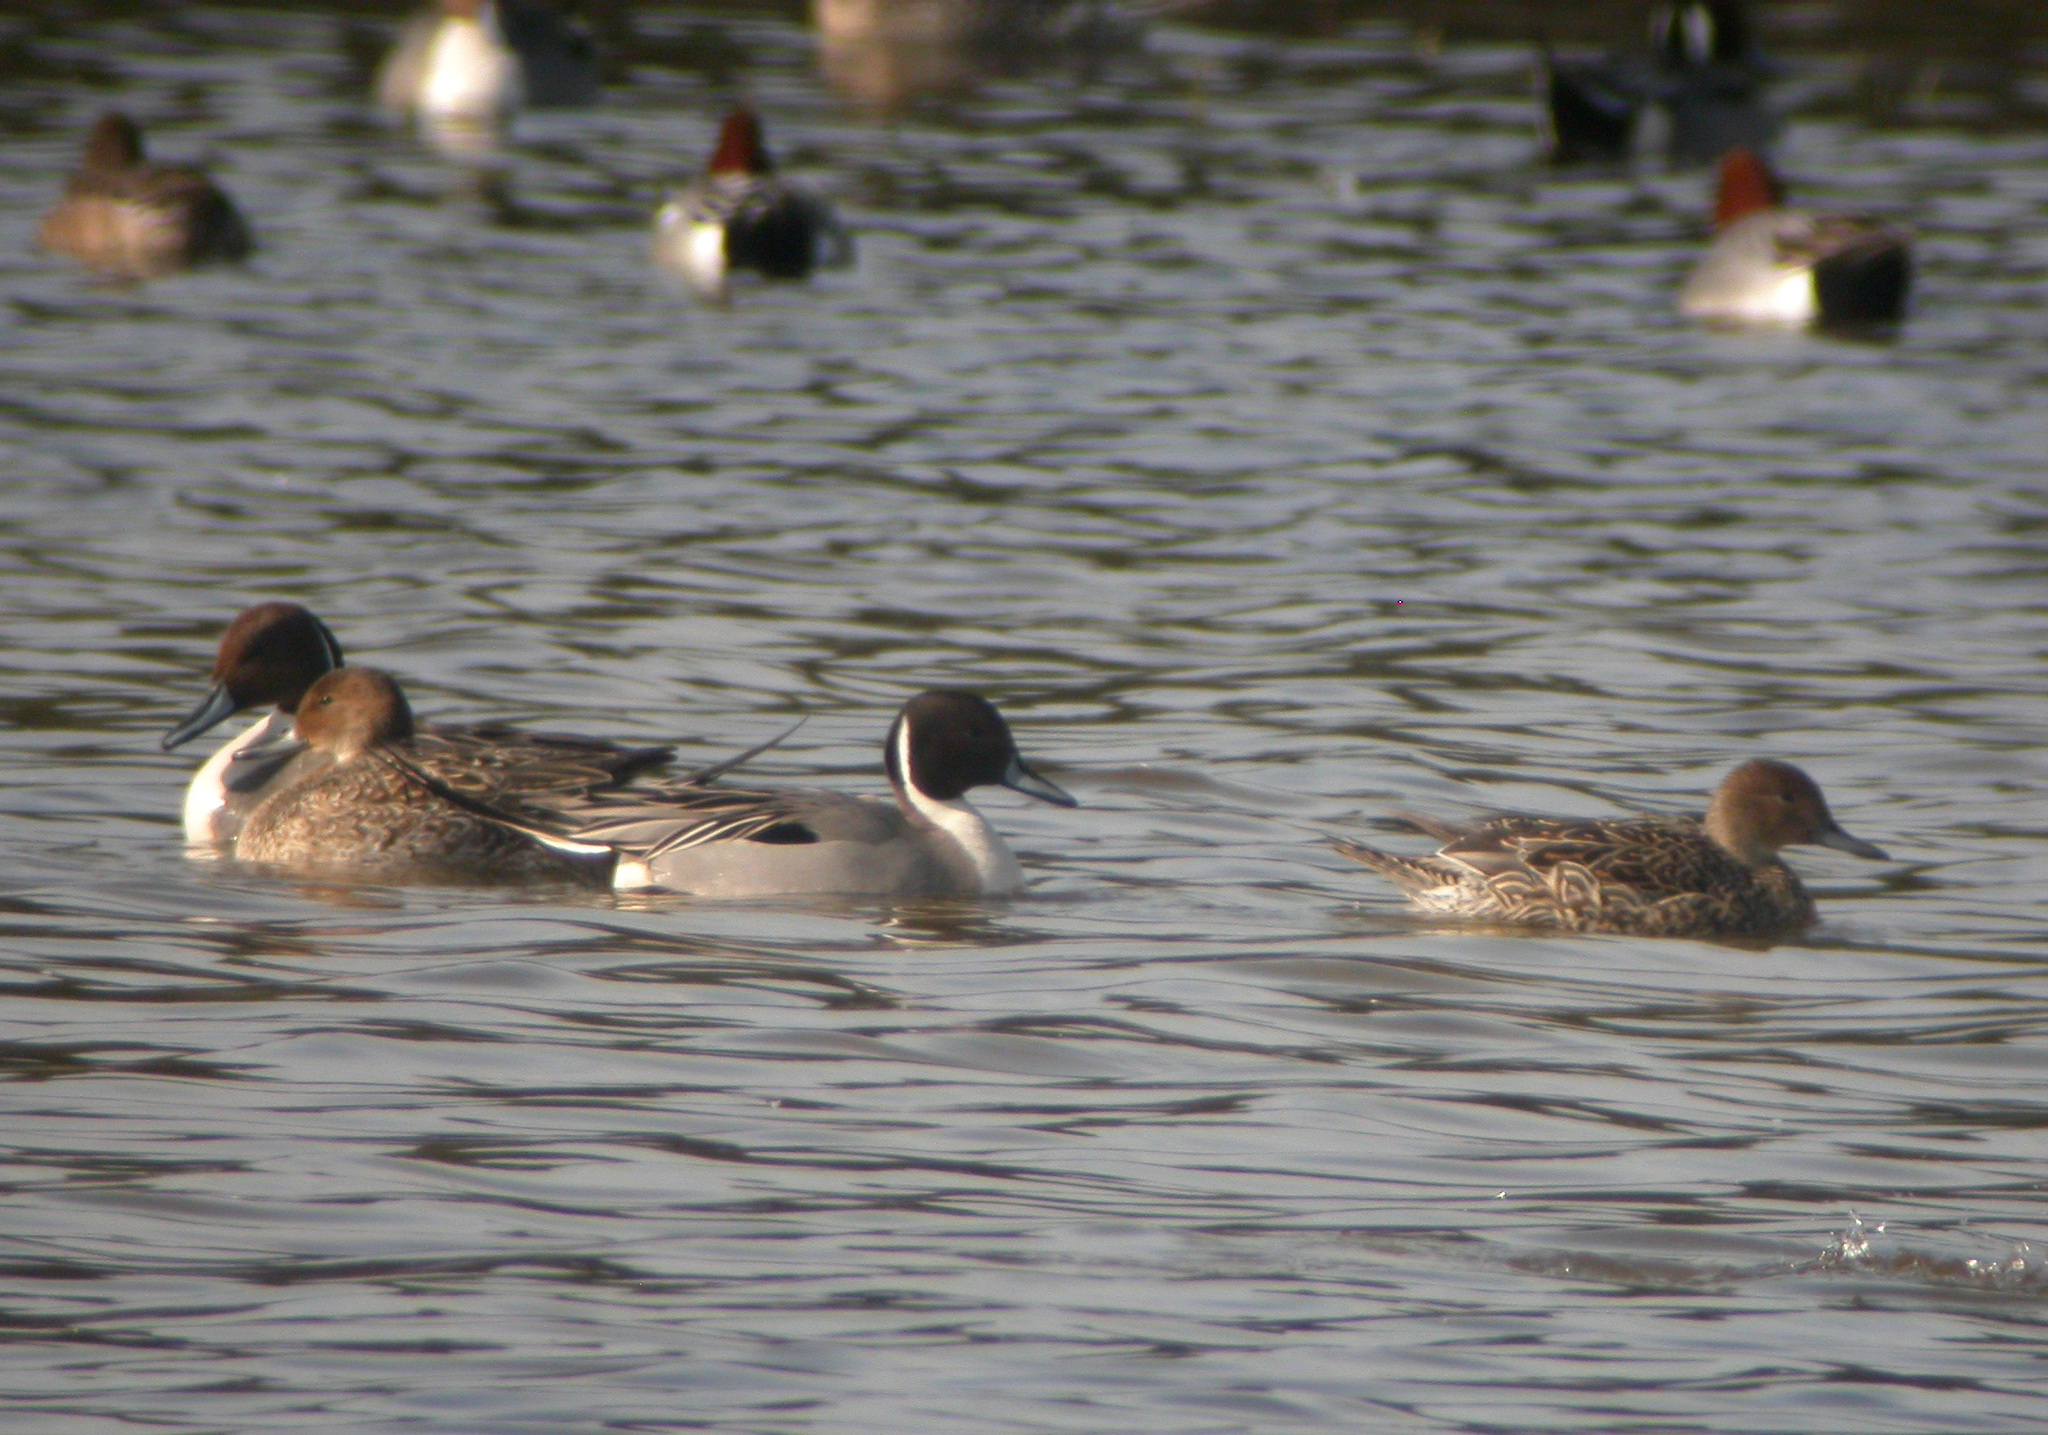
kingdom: Animalia
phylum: Chordata
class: Aves
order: Anseriformes
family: Anatidae
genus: Anas
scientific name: Anas acuta
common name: Northern pintail
